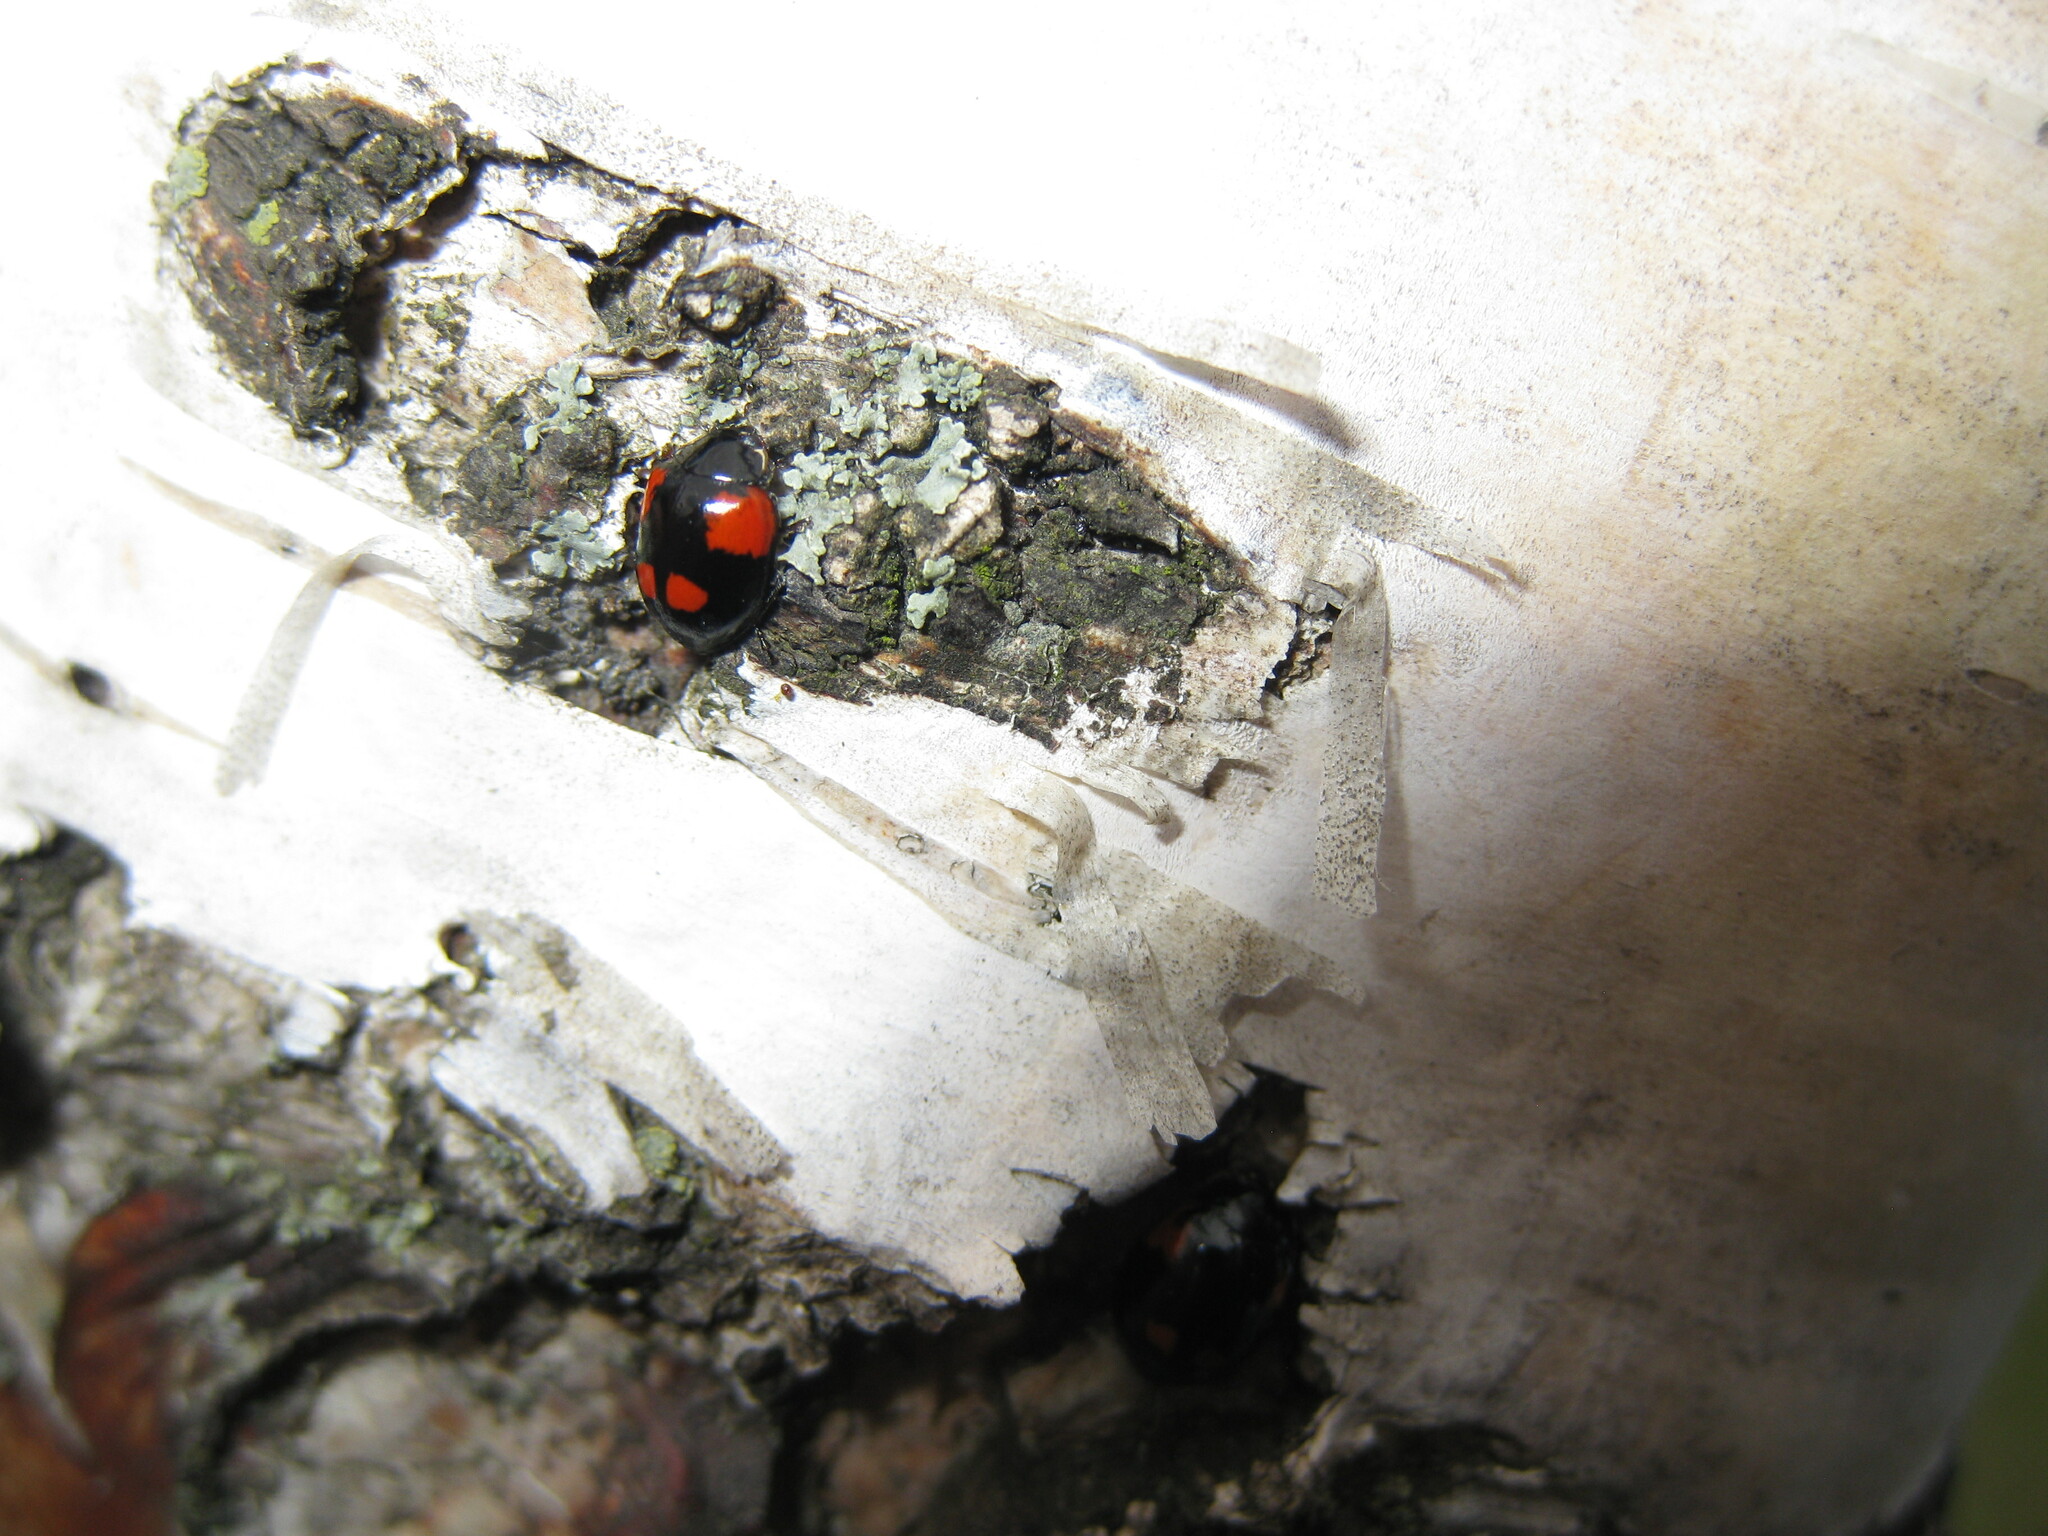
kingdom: Animalia
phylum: Arthropoda
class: Insecta
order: Coleoptera
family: Coccinellidae
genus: Adalia
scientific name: Adalia bipunctata
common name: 2-spot ladybird
